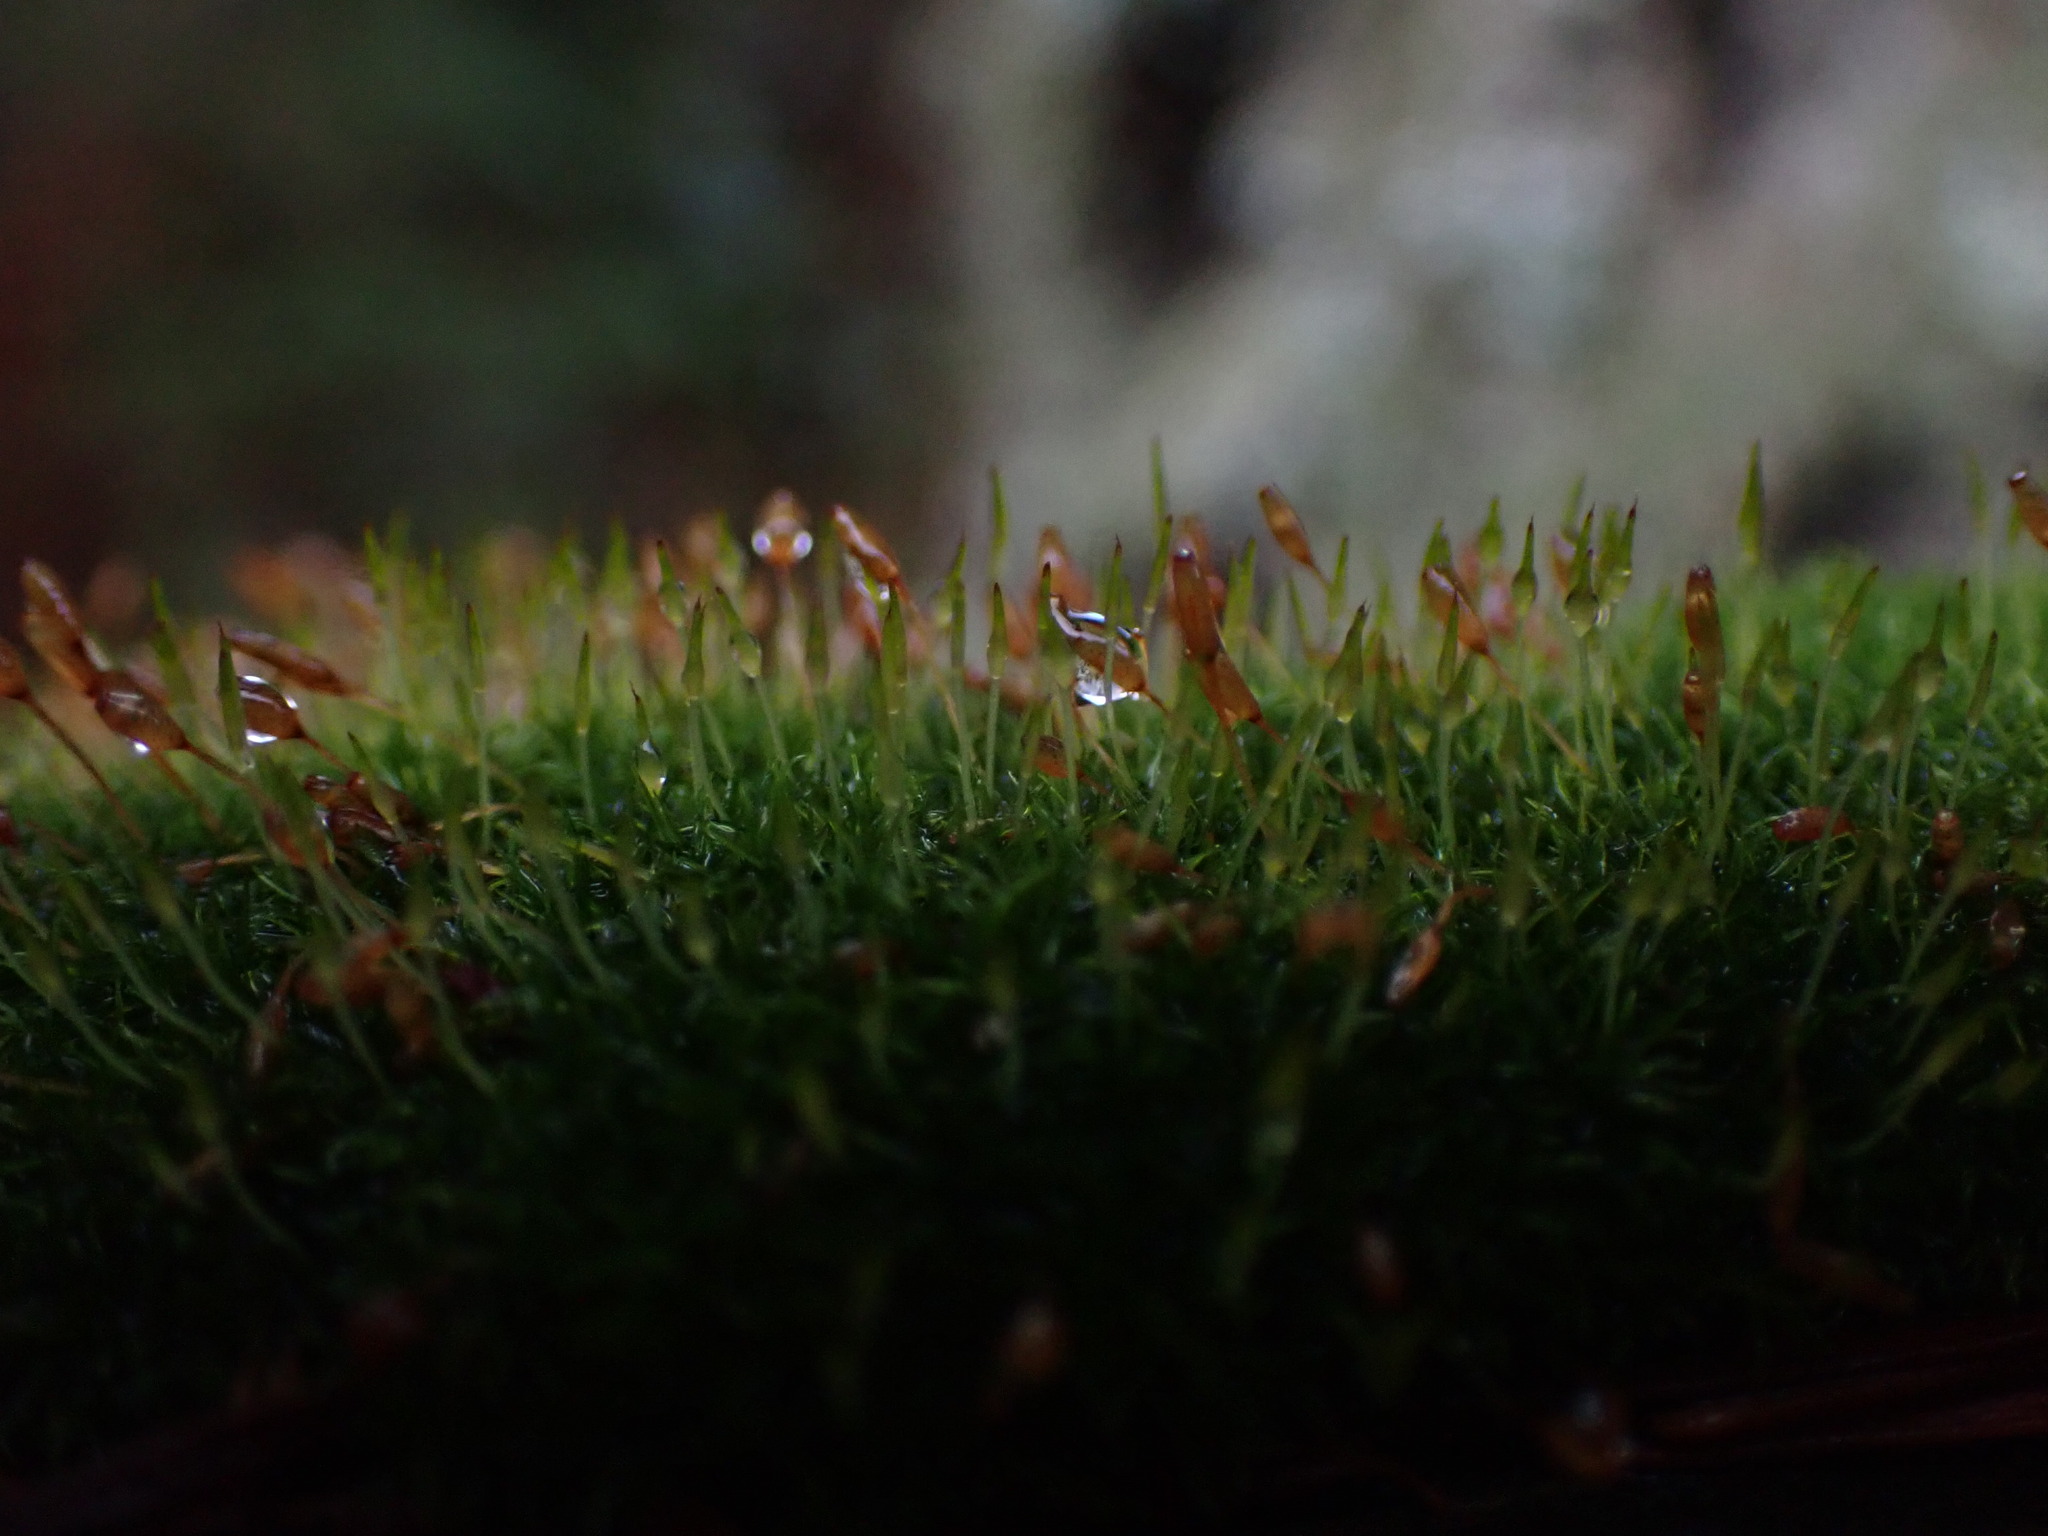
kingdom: Plantae
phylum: Bryophyta
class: Bryopsida
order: Dicranales
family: Rhabdoweisiaceae
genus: Dicranoweisia
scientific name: Dicranoweisia cirrata
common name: Common pincushion
